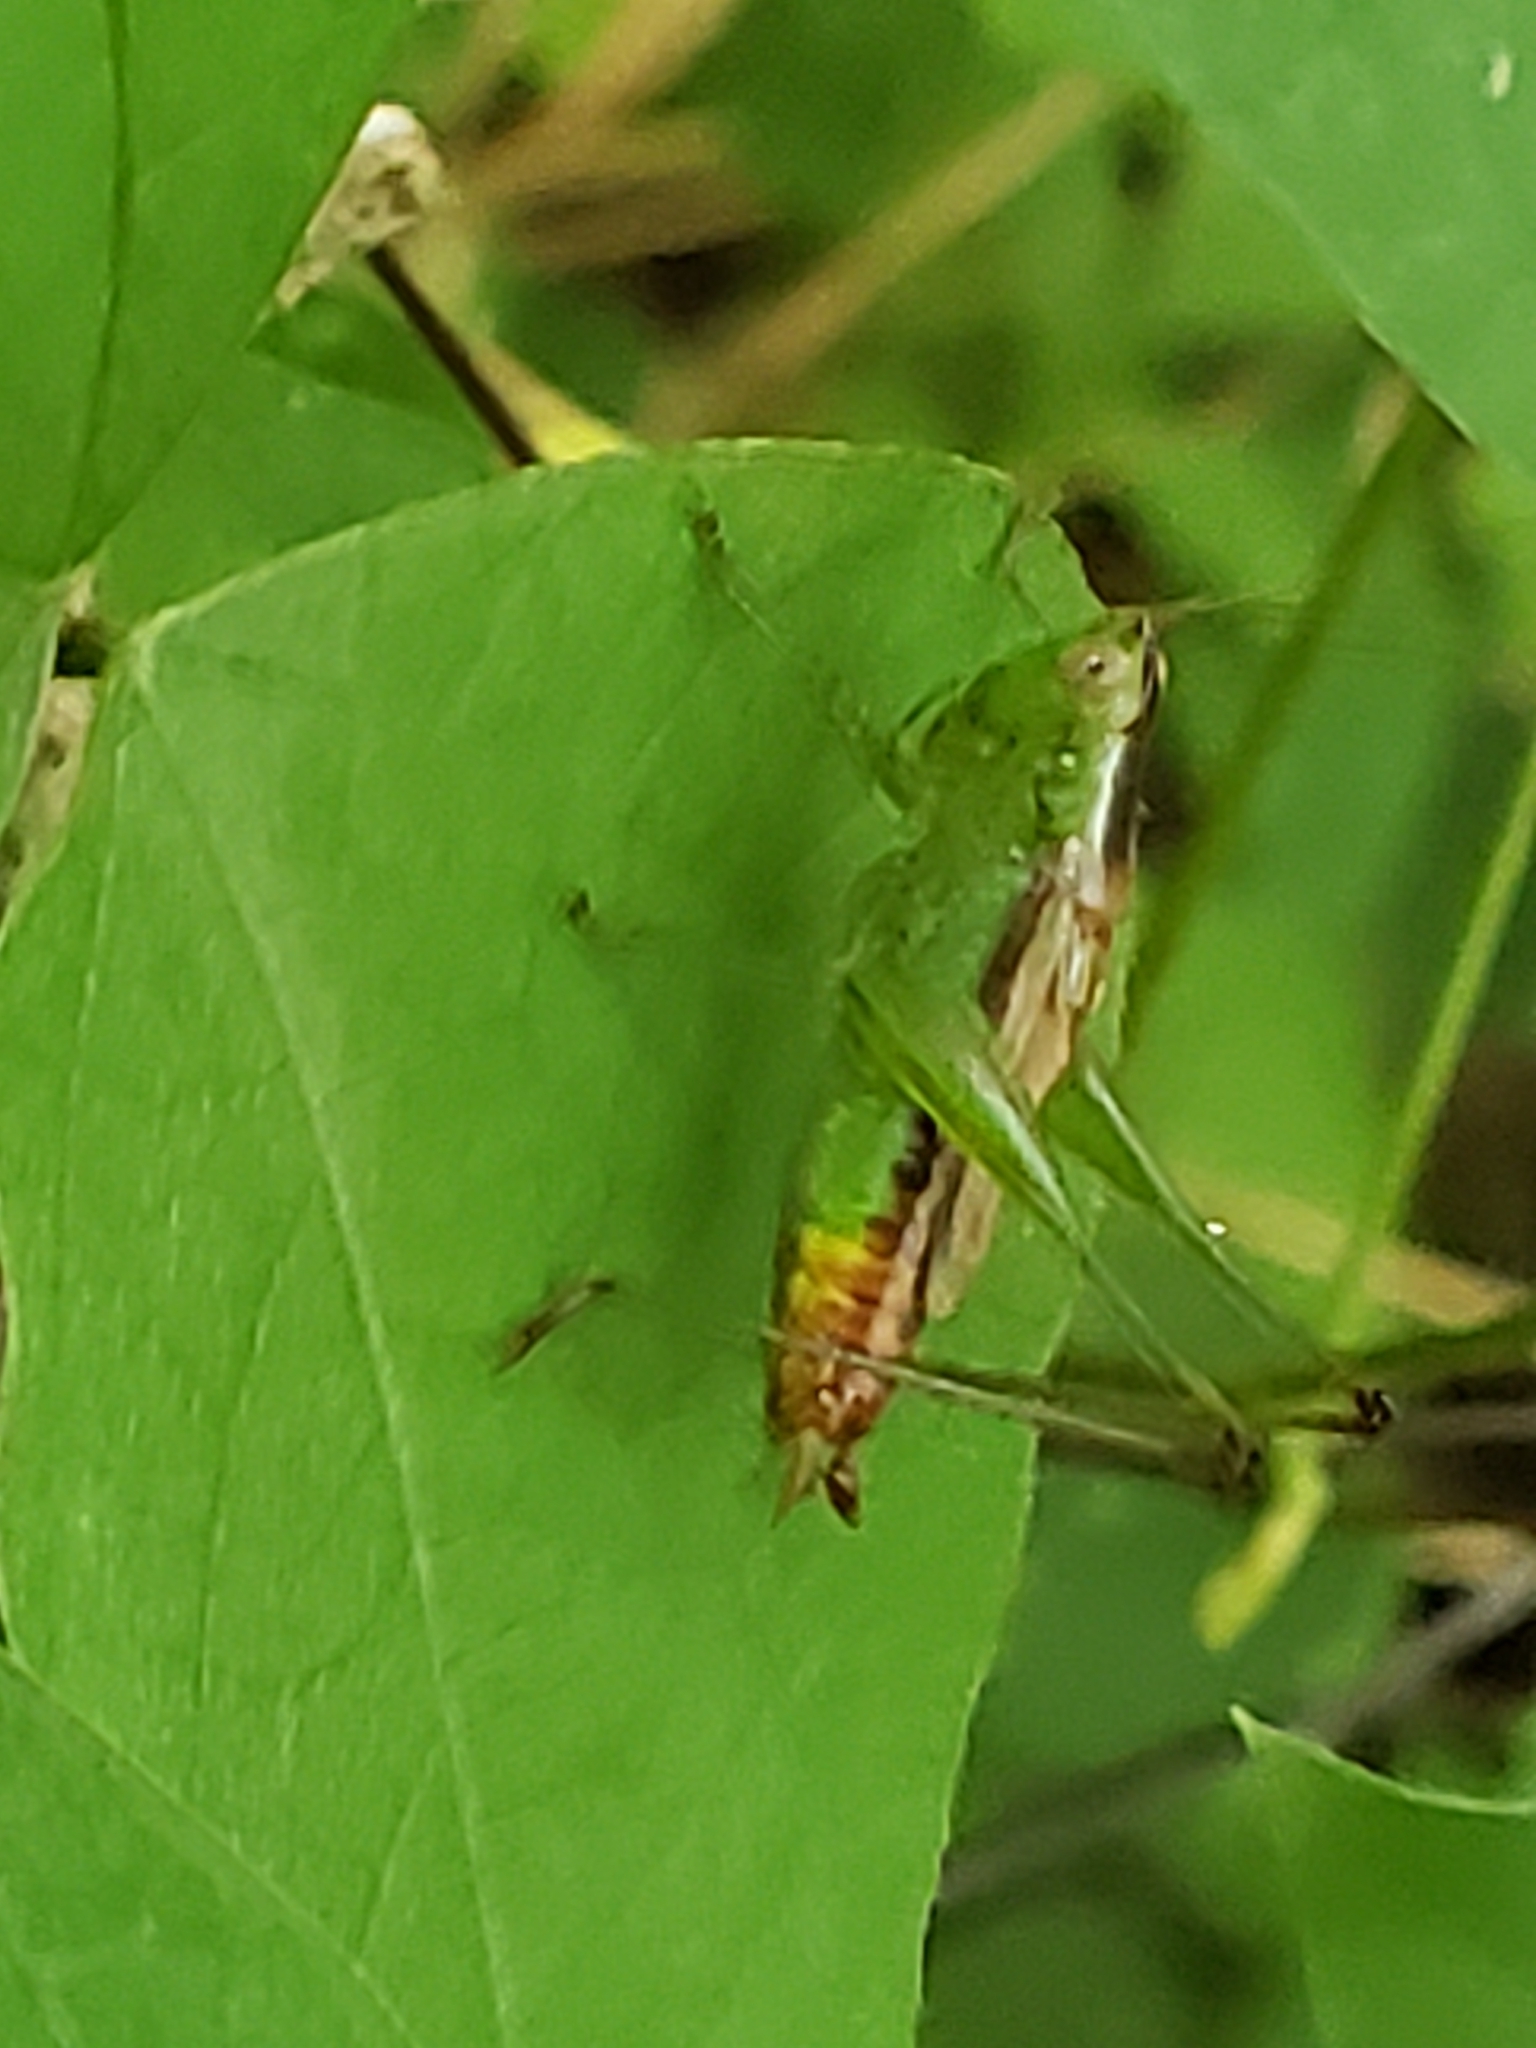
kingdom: Animalia
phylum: Arthropoda
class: Insecta
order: Orthoptera
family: Tettigoniidae
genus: Conocephalus
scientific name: Conocephalus brevipennis
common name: Short-winged meadow katydid
